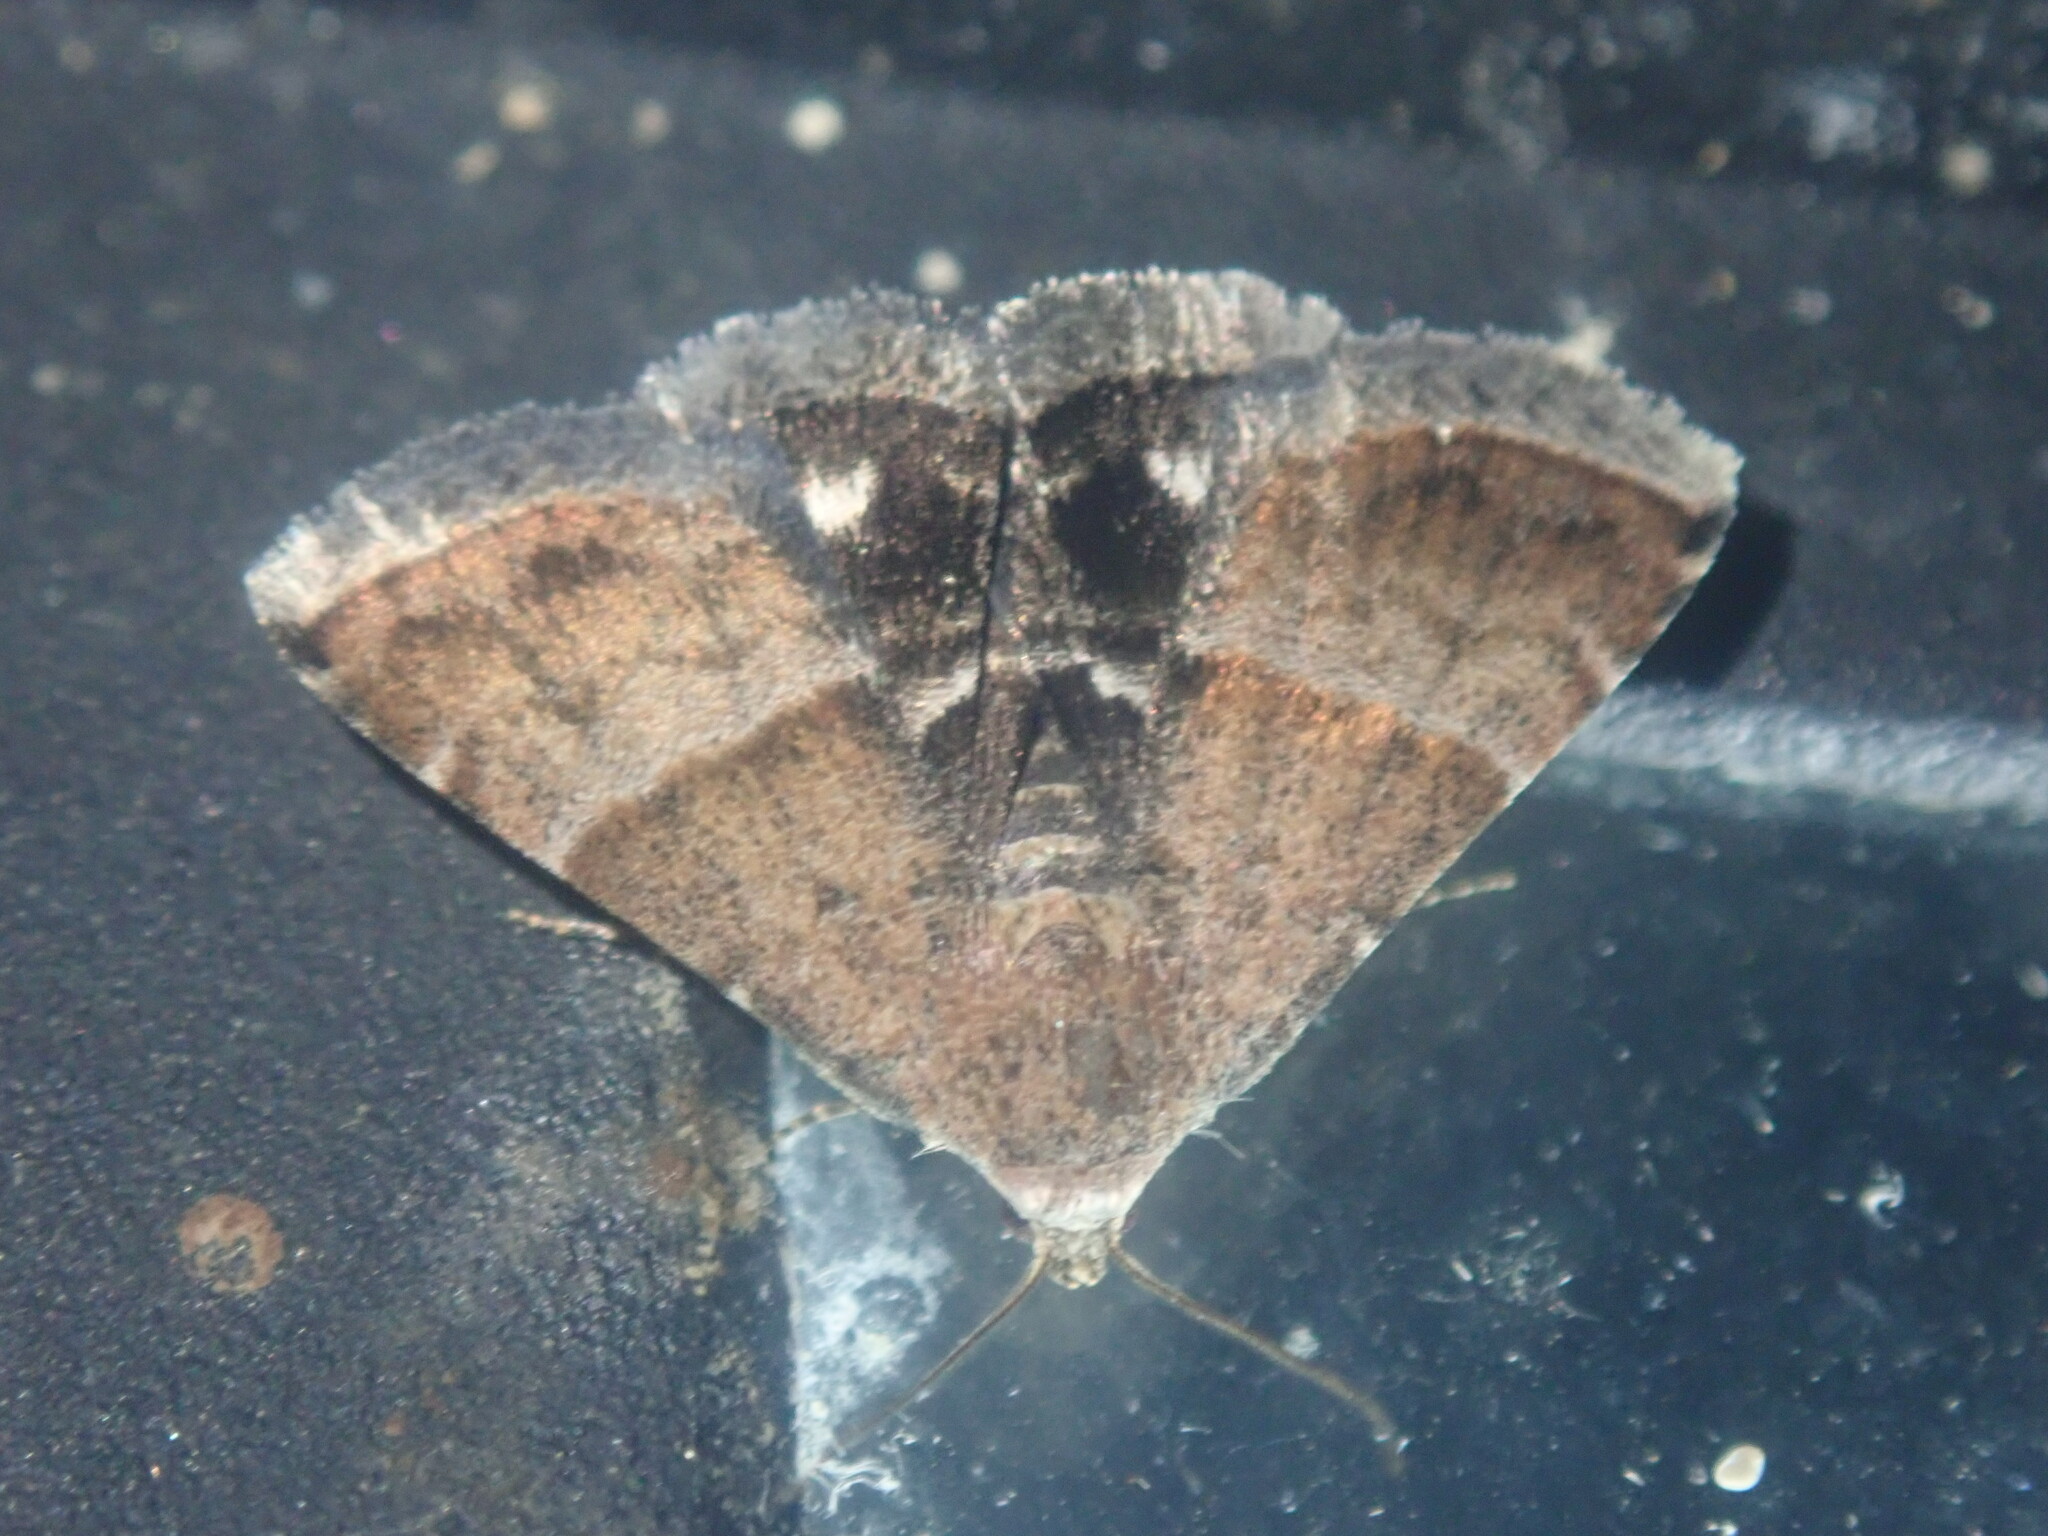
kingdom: Animalia
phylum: Arthropoda
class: Insecta
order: Lepidoptera
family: Noctuidae
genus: Eublemma
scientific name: Eublemma bolinia
